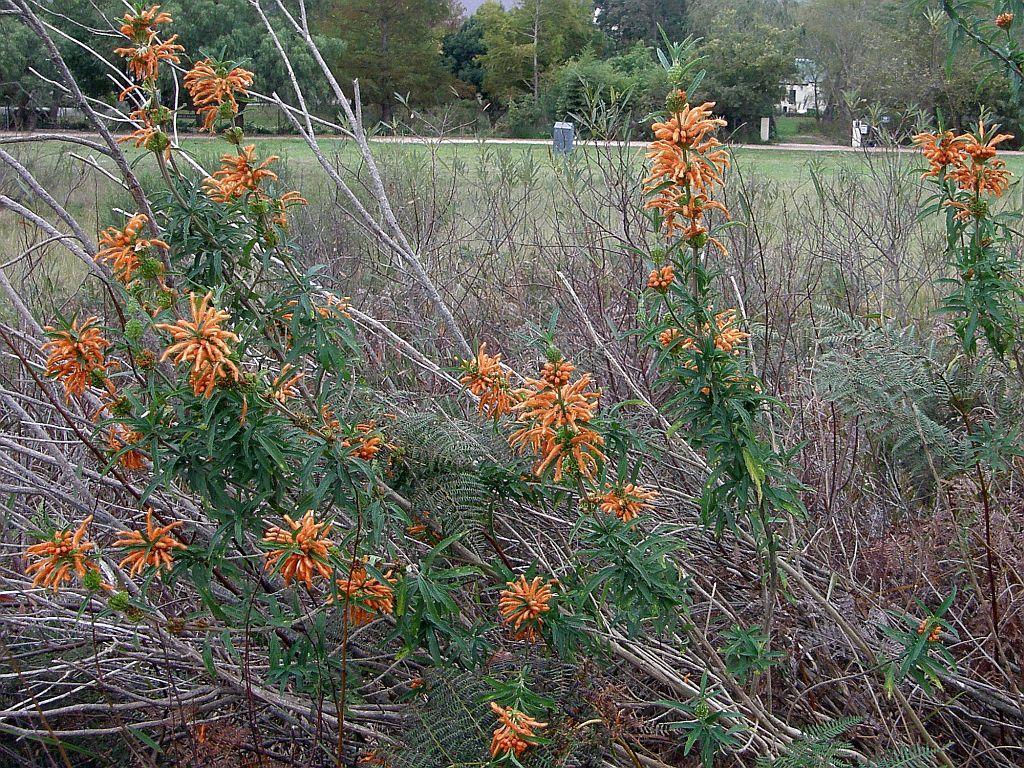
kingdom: Plantae
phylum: Tracheophyta
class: Magnoliopsida
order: Lamiales
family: Lamiaceae
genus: Leonotis
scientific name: Leonotis leonurus
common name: Lion's ear
